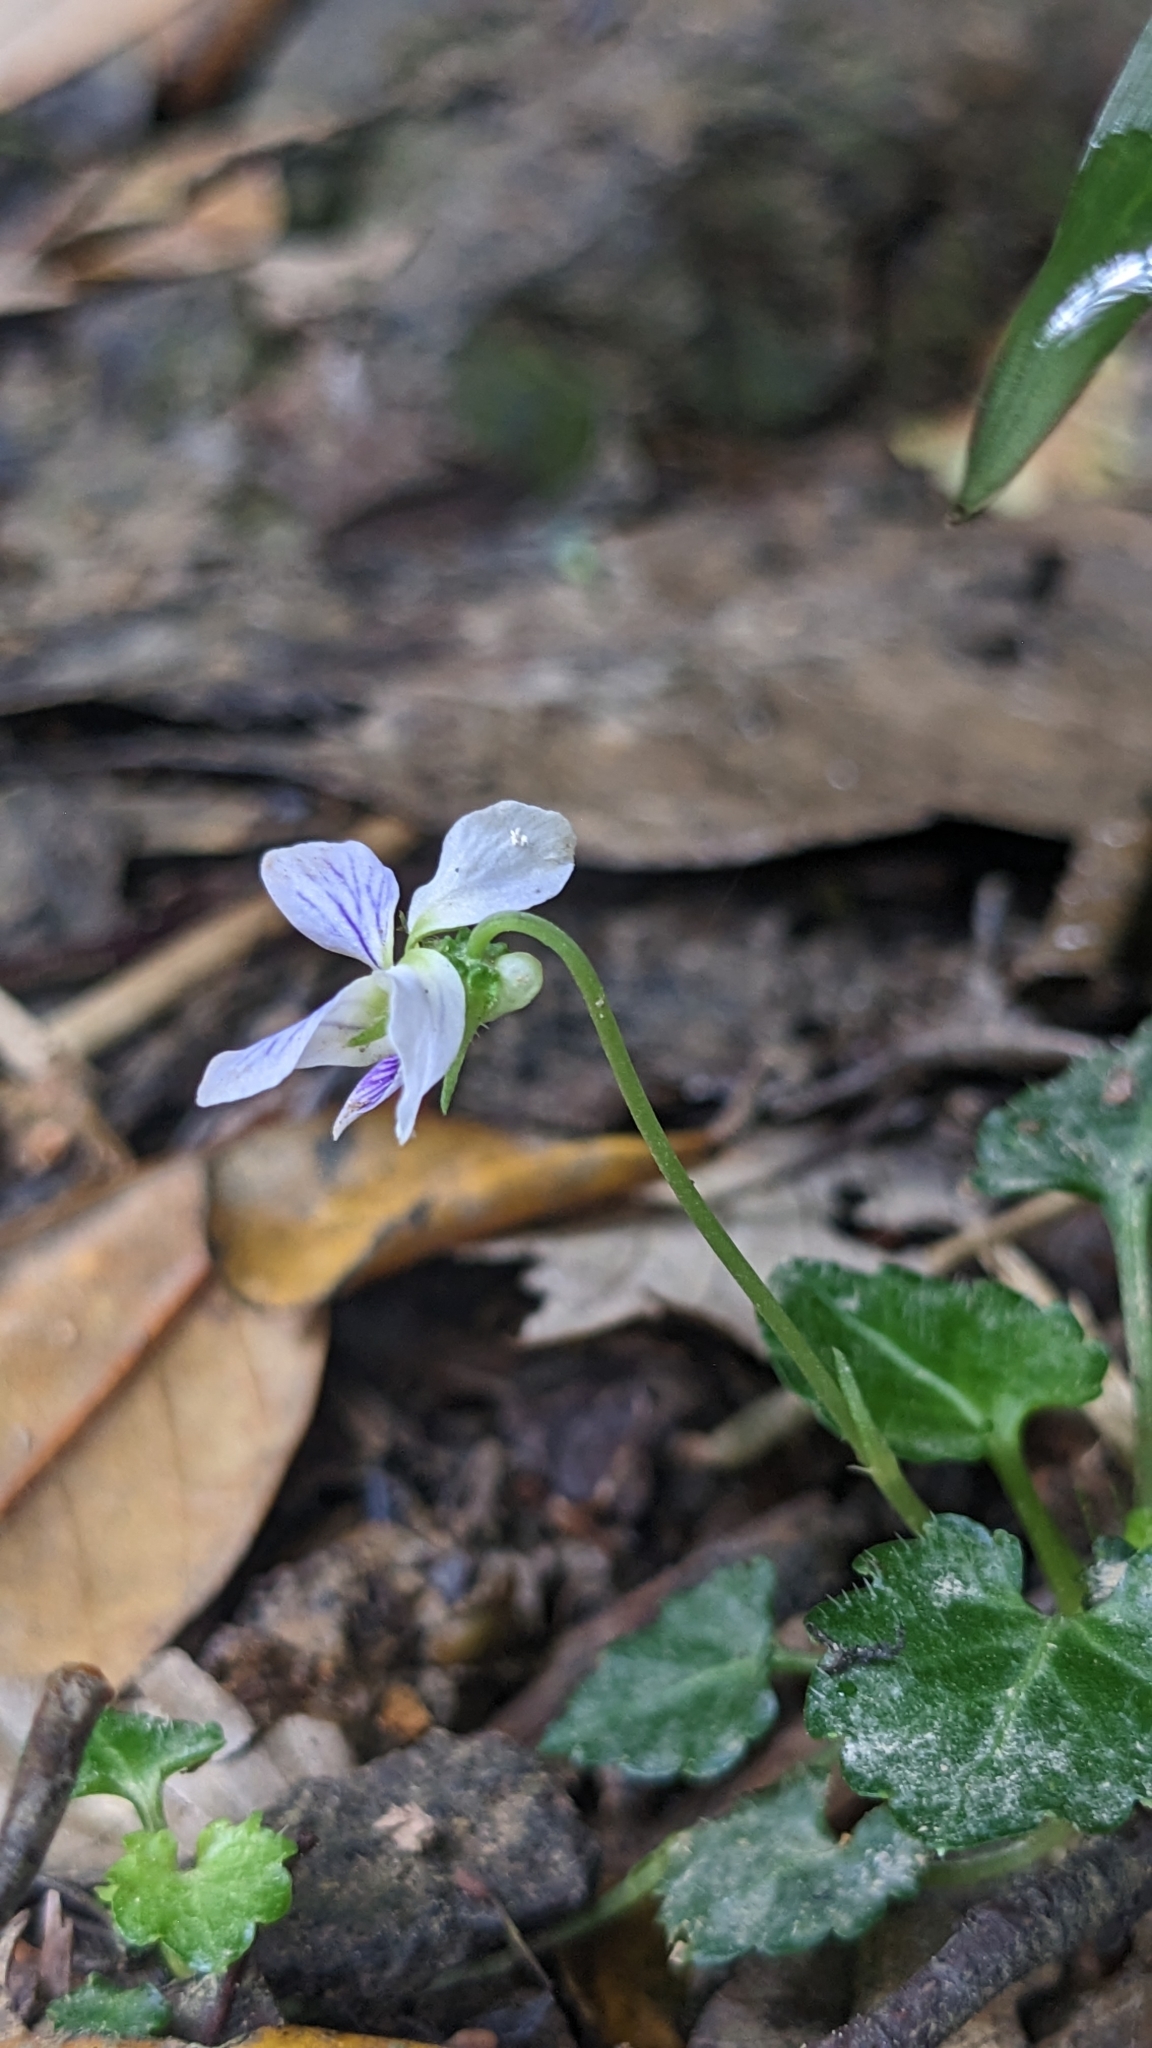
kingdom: Plantae
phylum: Tracheophyta
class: Magnoliopsida
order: Malpighiales
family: Violaceae
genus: Viola
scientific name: Viola nagasawae
